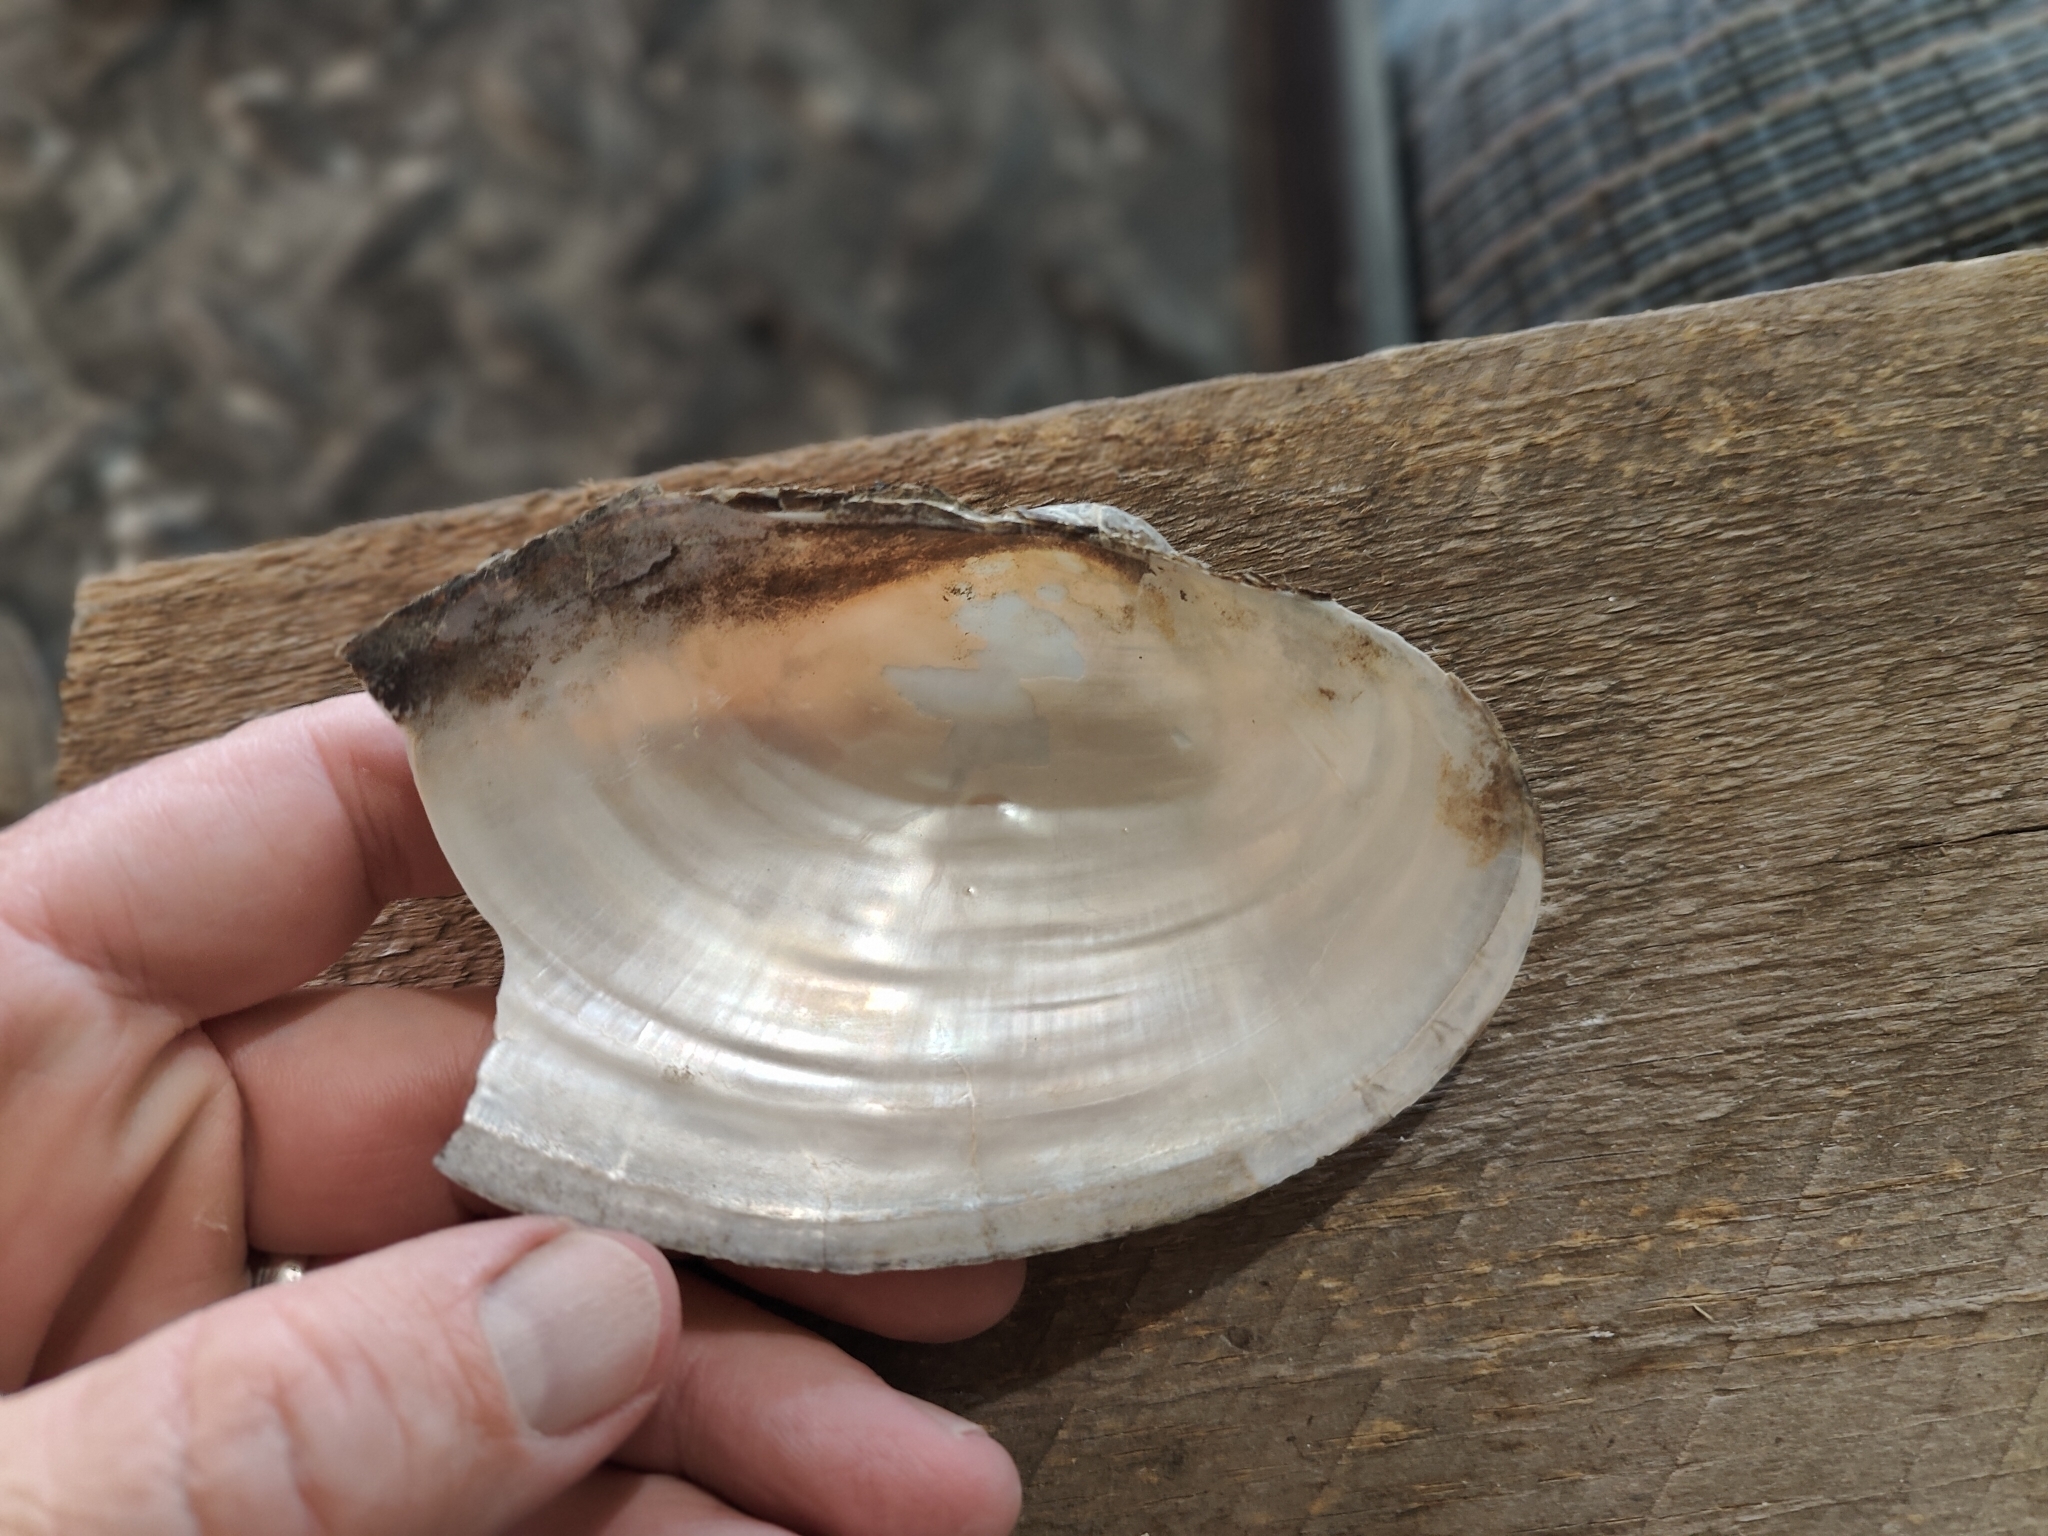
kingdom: Animalia
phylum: Mollusca
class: Bivalvia
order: Unionida
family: Unionidae
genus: Pyganodon
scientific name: Pyganodon grandis
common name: Giant floater
